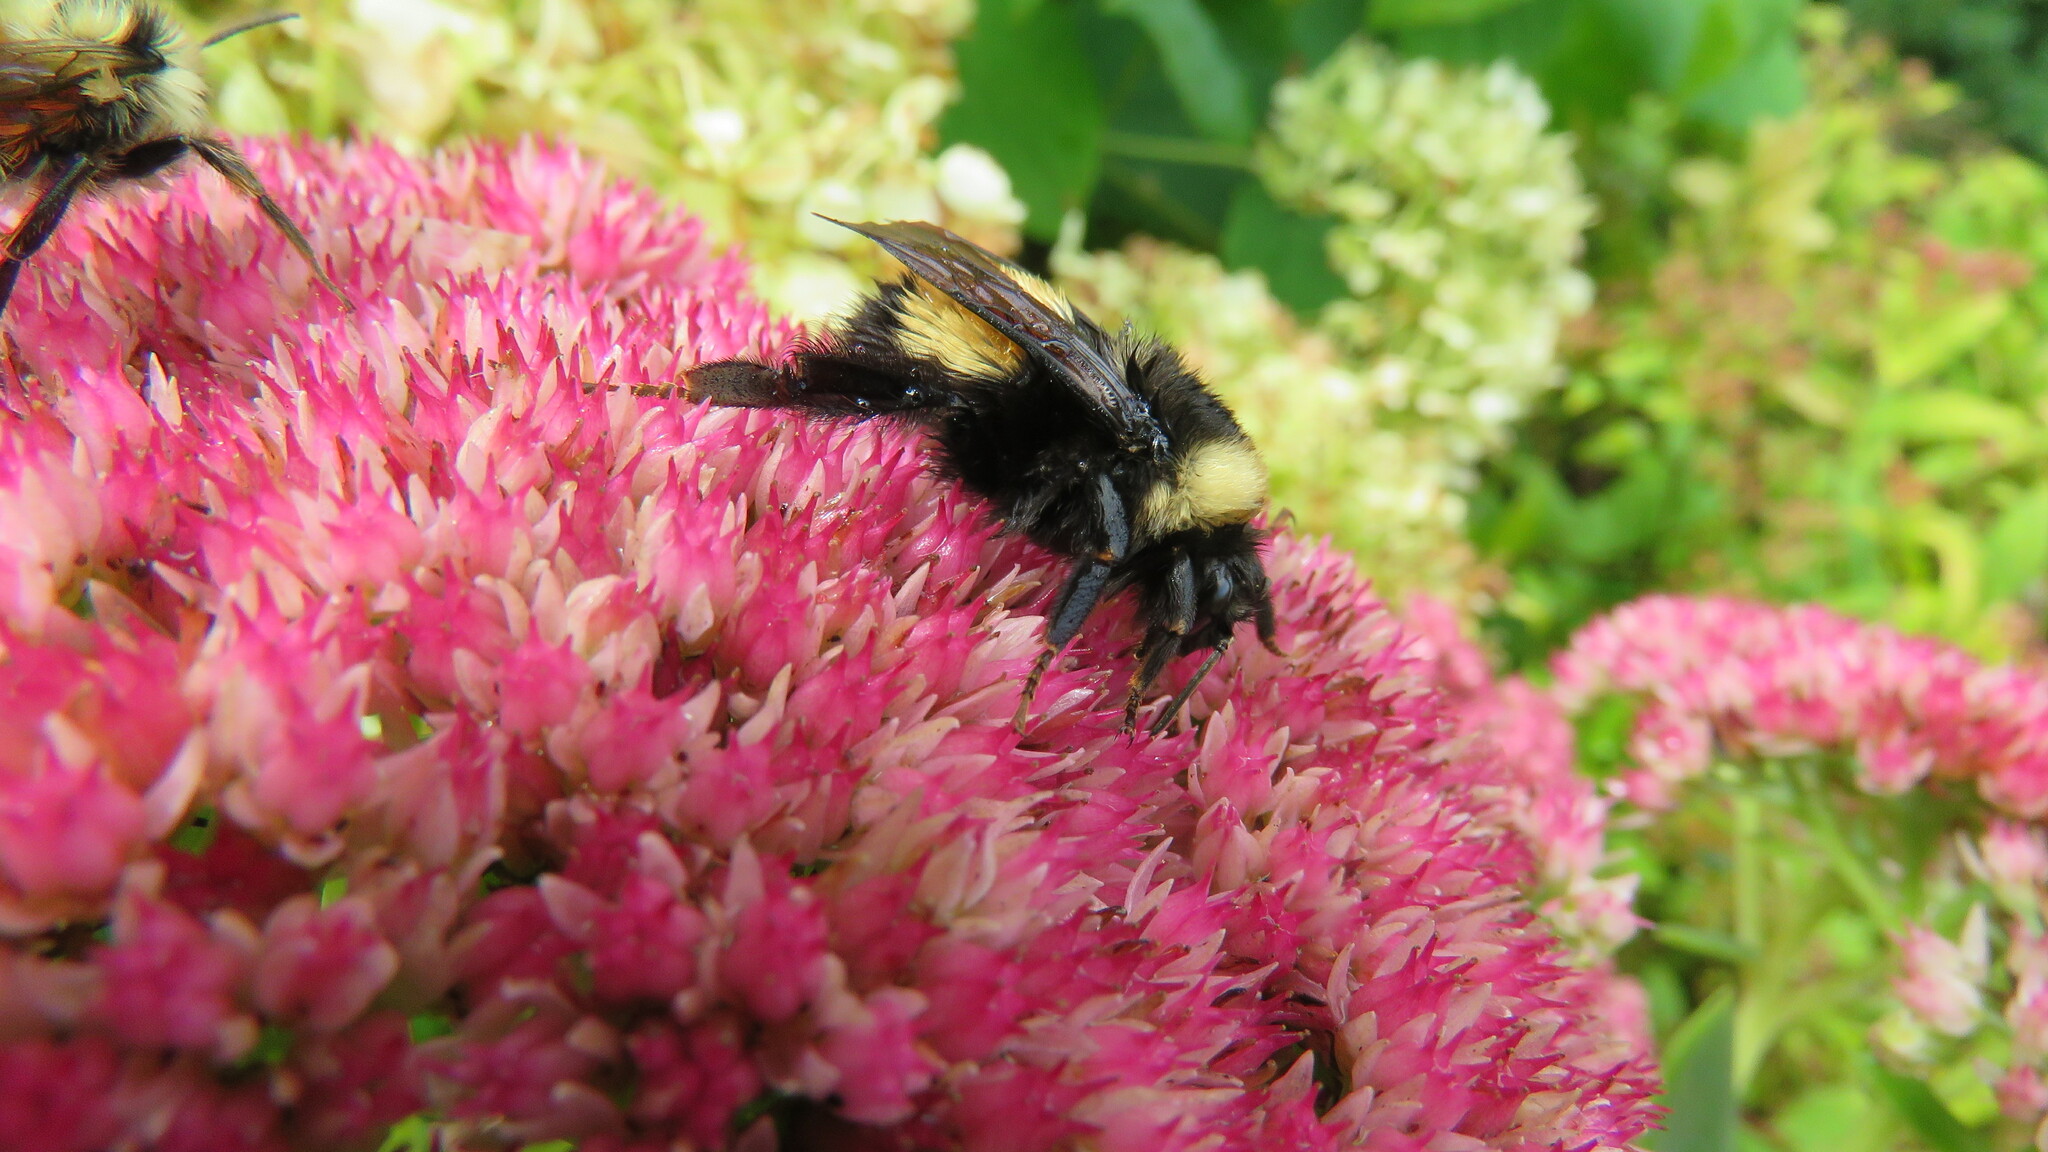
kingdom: Animalia
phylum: Arthropoda
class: Insecta
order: Hymenoptera
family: Apidae
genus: Bombus
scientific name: Bombus terricola
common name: Yellow-banded bumble bee
